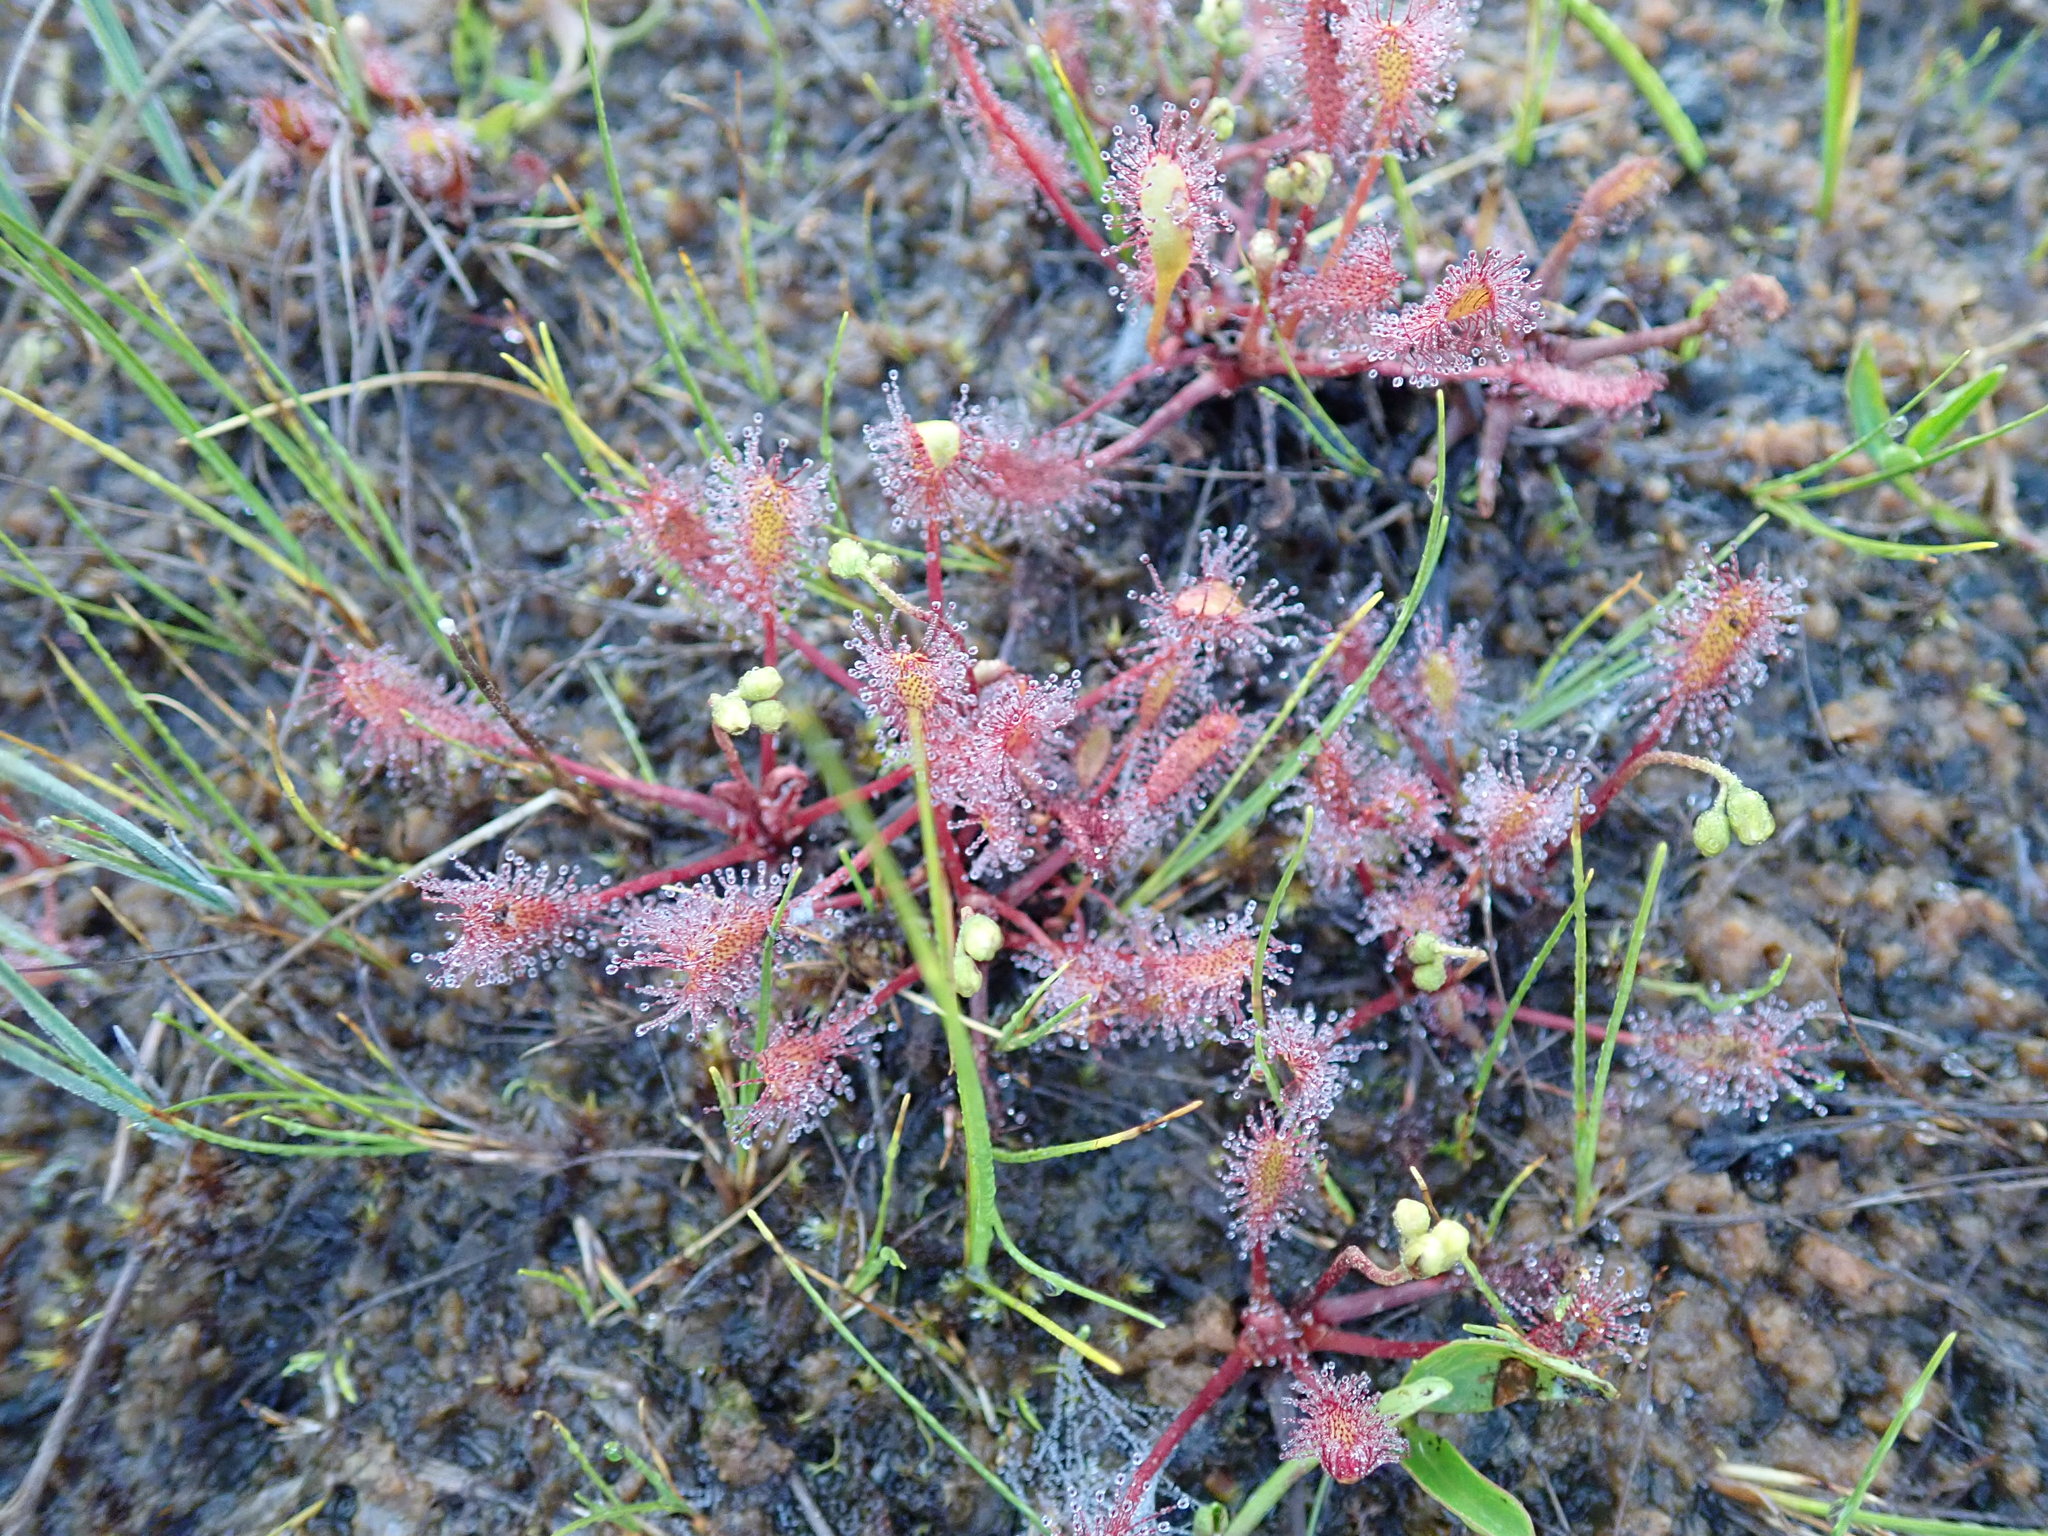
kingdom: Plantae
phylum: Tracheophyta
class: Magnoliopsida
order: Caryophyllales
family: Droseraceae
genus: Drosera
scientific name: Drosera anglica
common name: Great sundew
